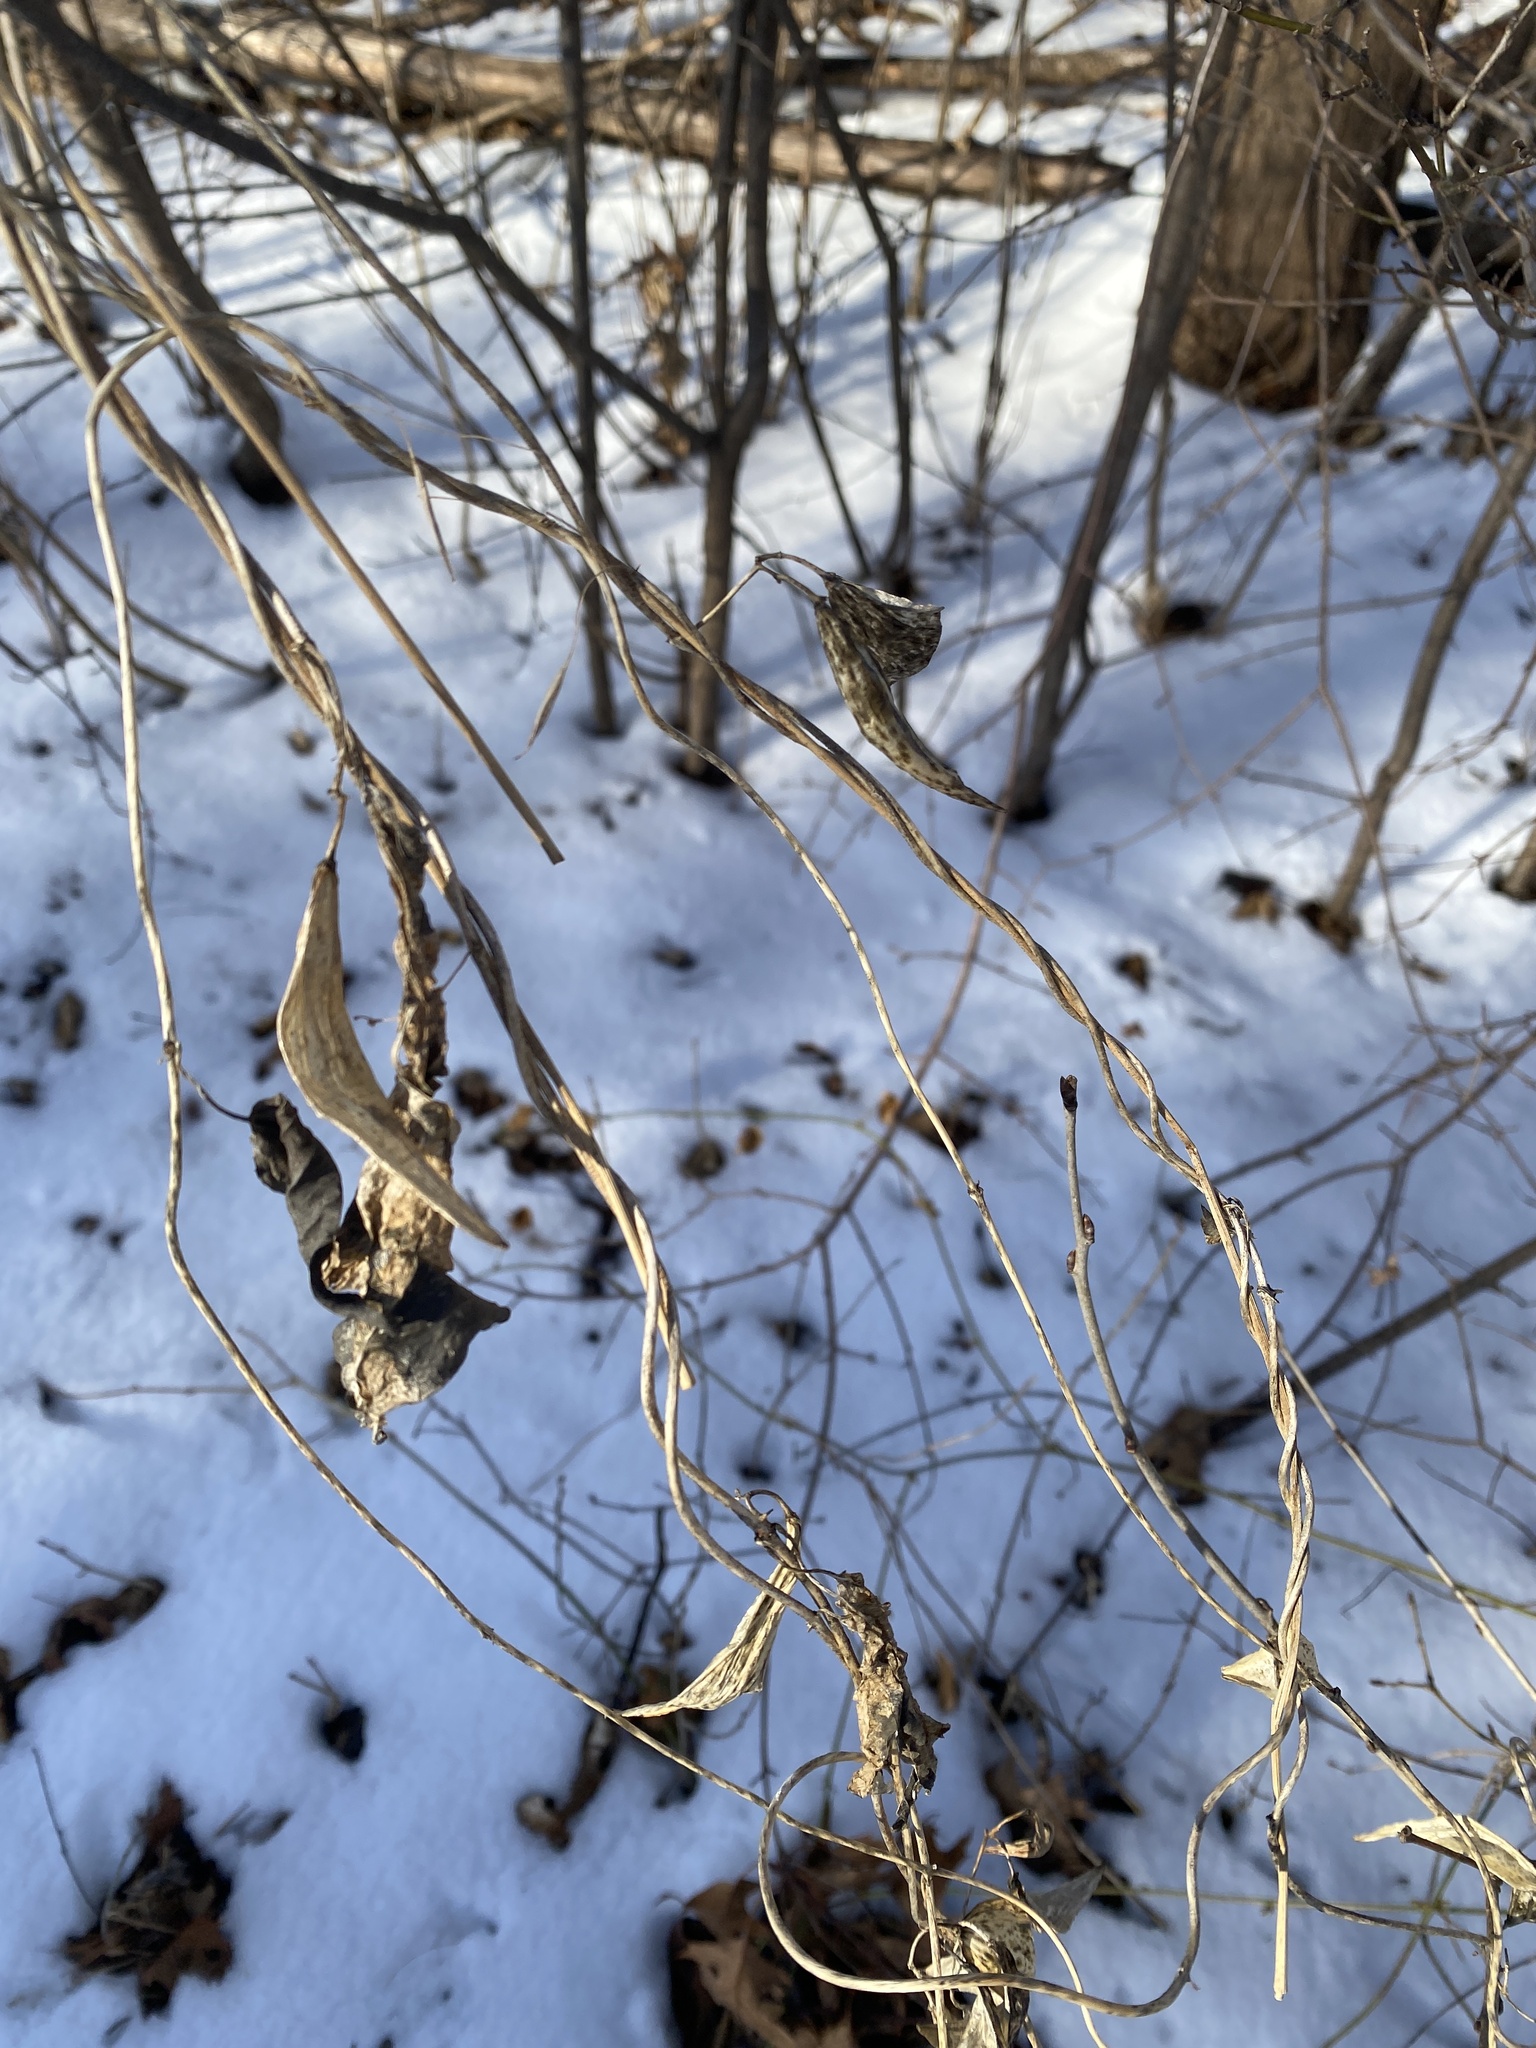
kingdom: Plantae
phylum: Tracheophyta
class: Magnoliopsida
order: Boraginales
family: Boraginaceae
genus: Hackelia
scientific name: Hackelia virginiana
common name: Beggar's-lice
